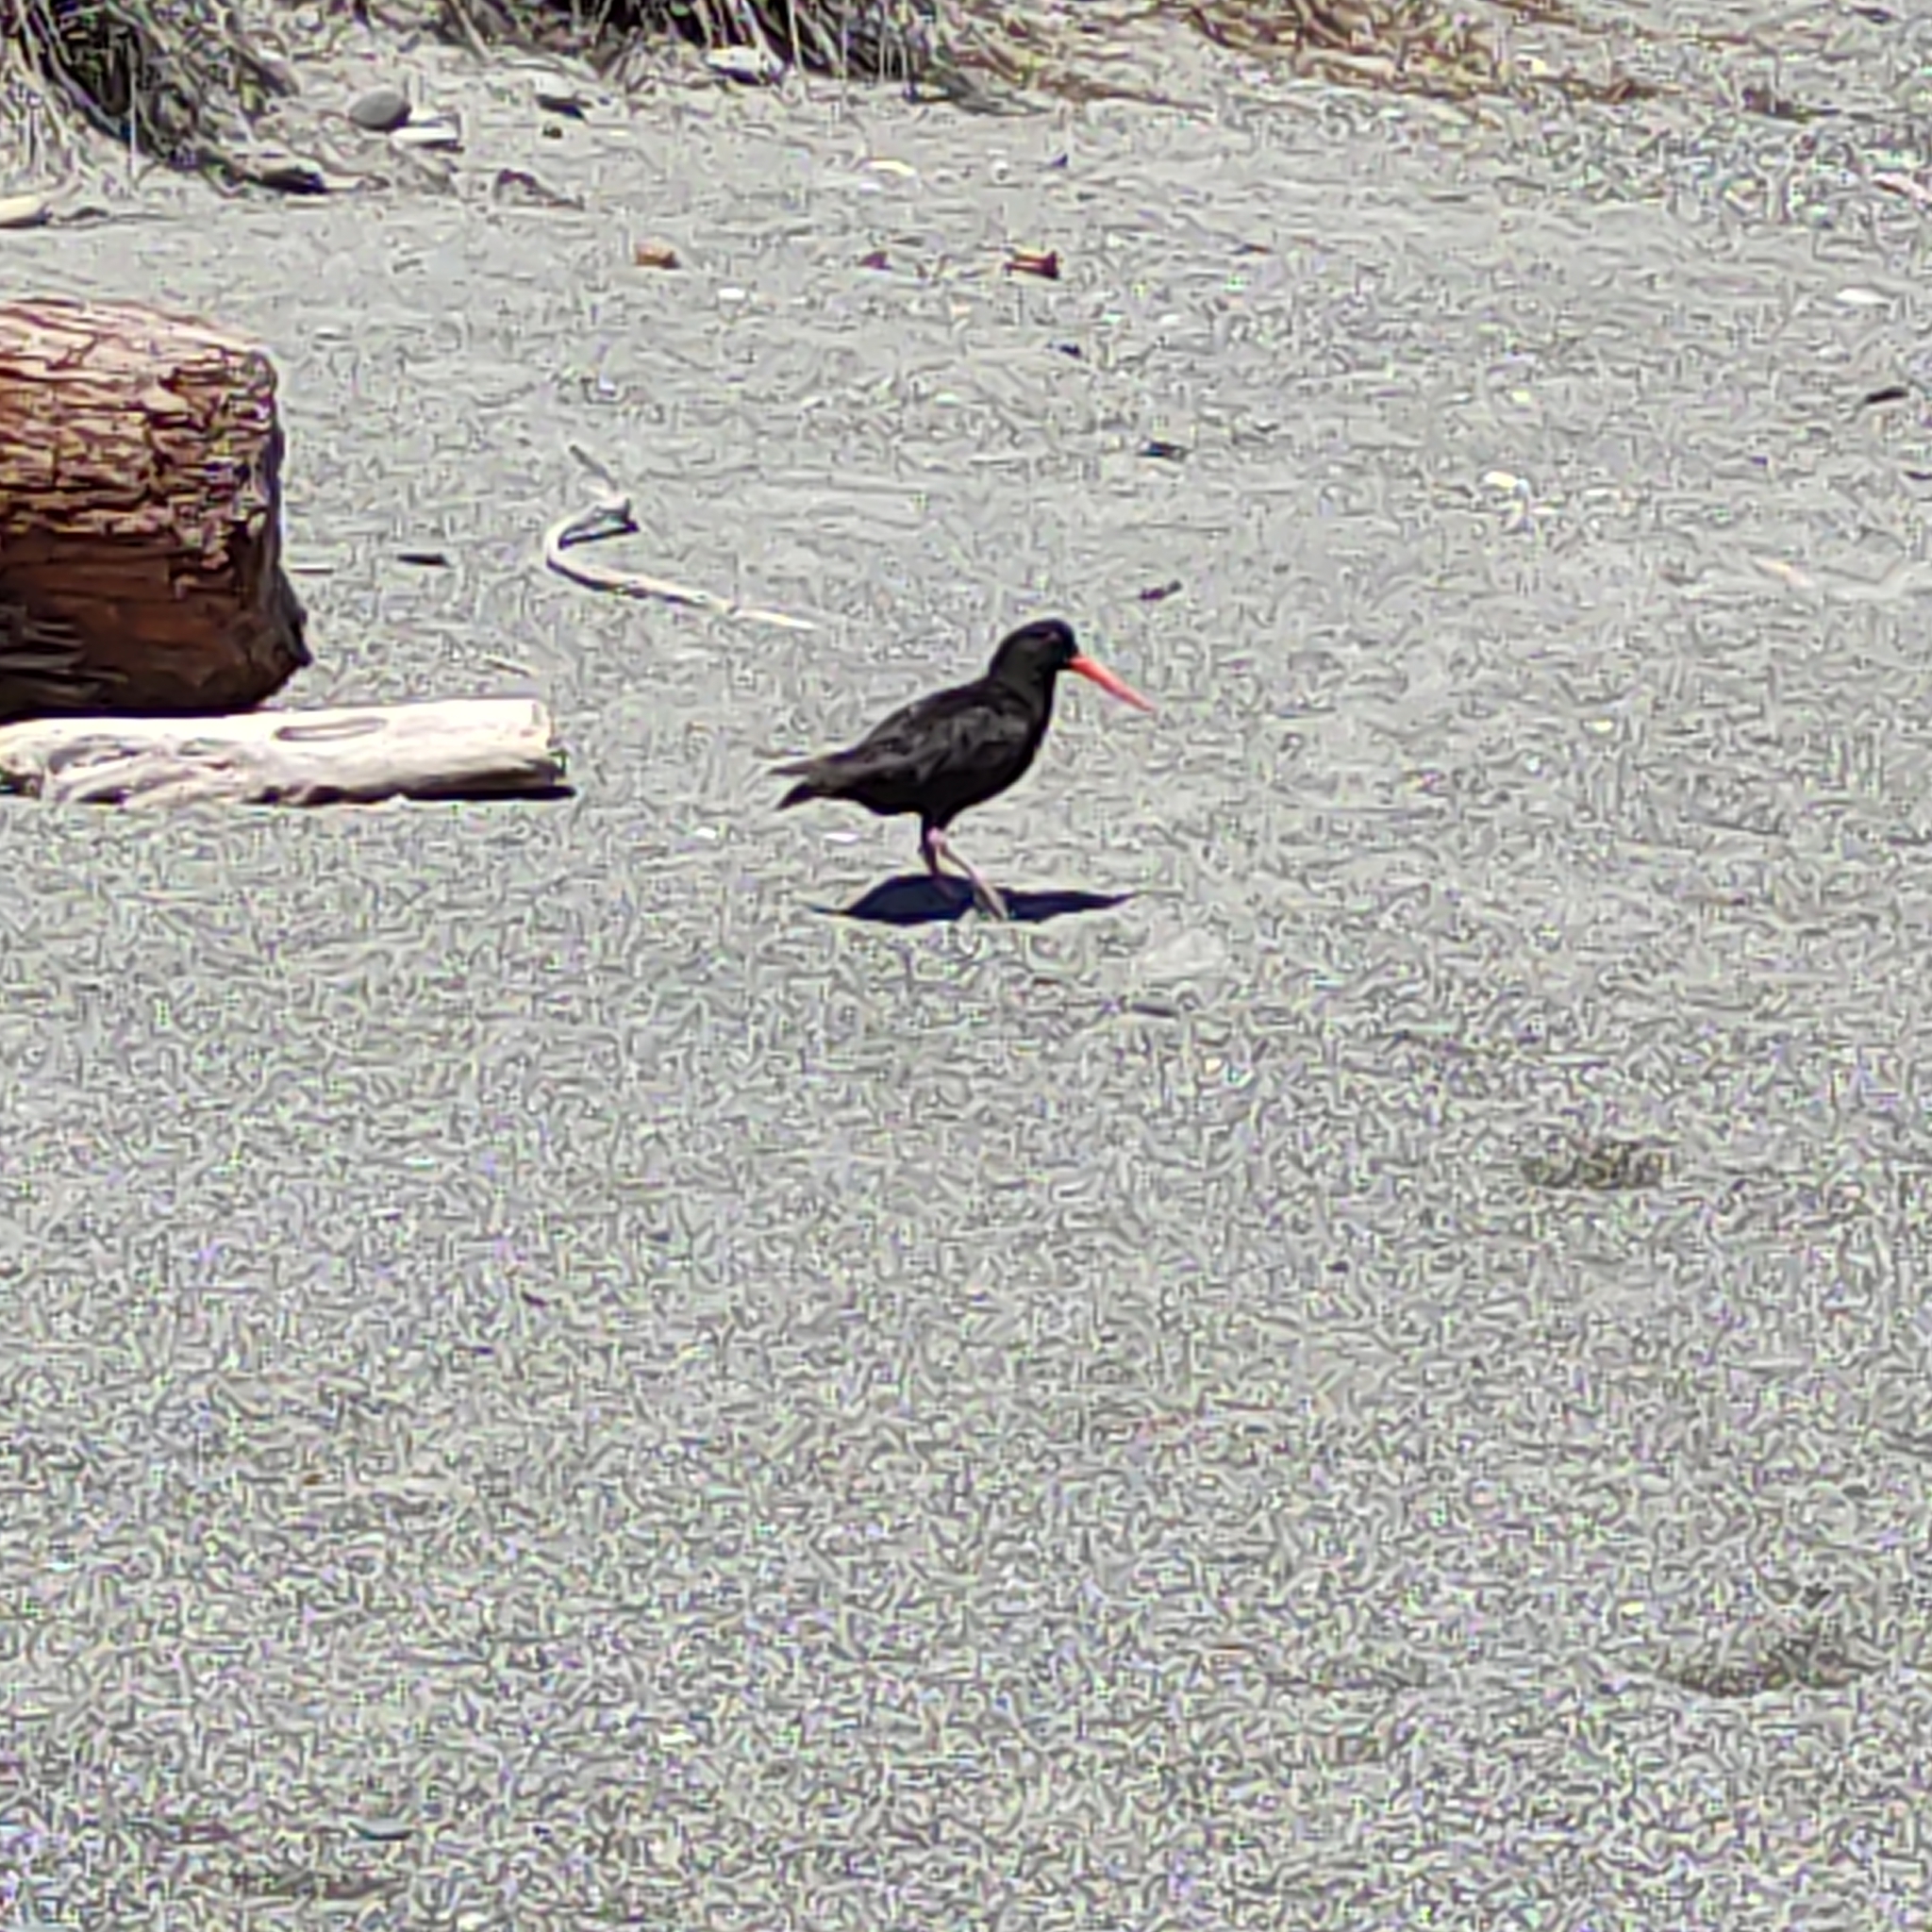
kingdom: Animalia
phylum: Chordata
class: Aves
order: Charadriiformes
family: Haematopodidae
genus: Haematopus
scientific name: Haematopus unicolor
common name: Variable oystercatcher
